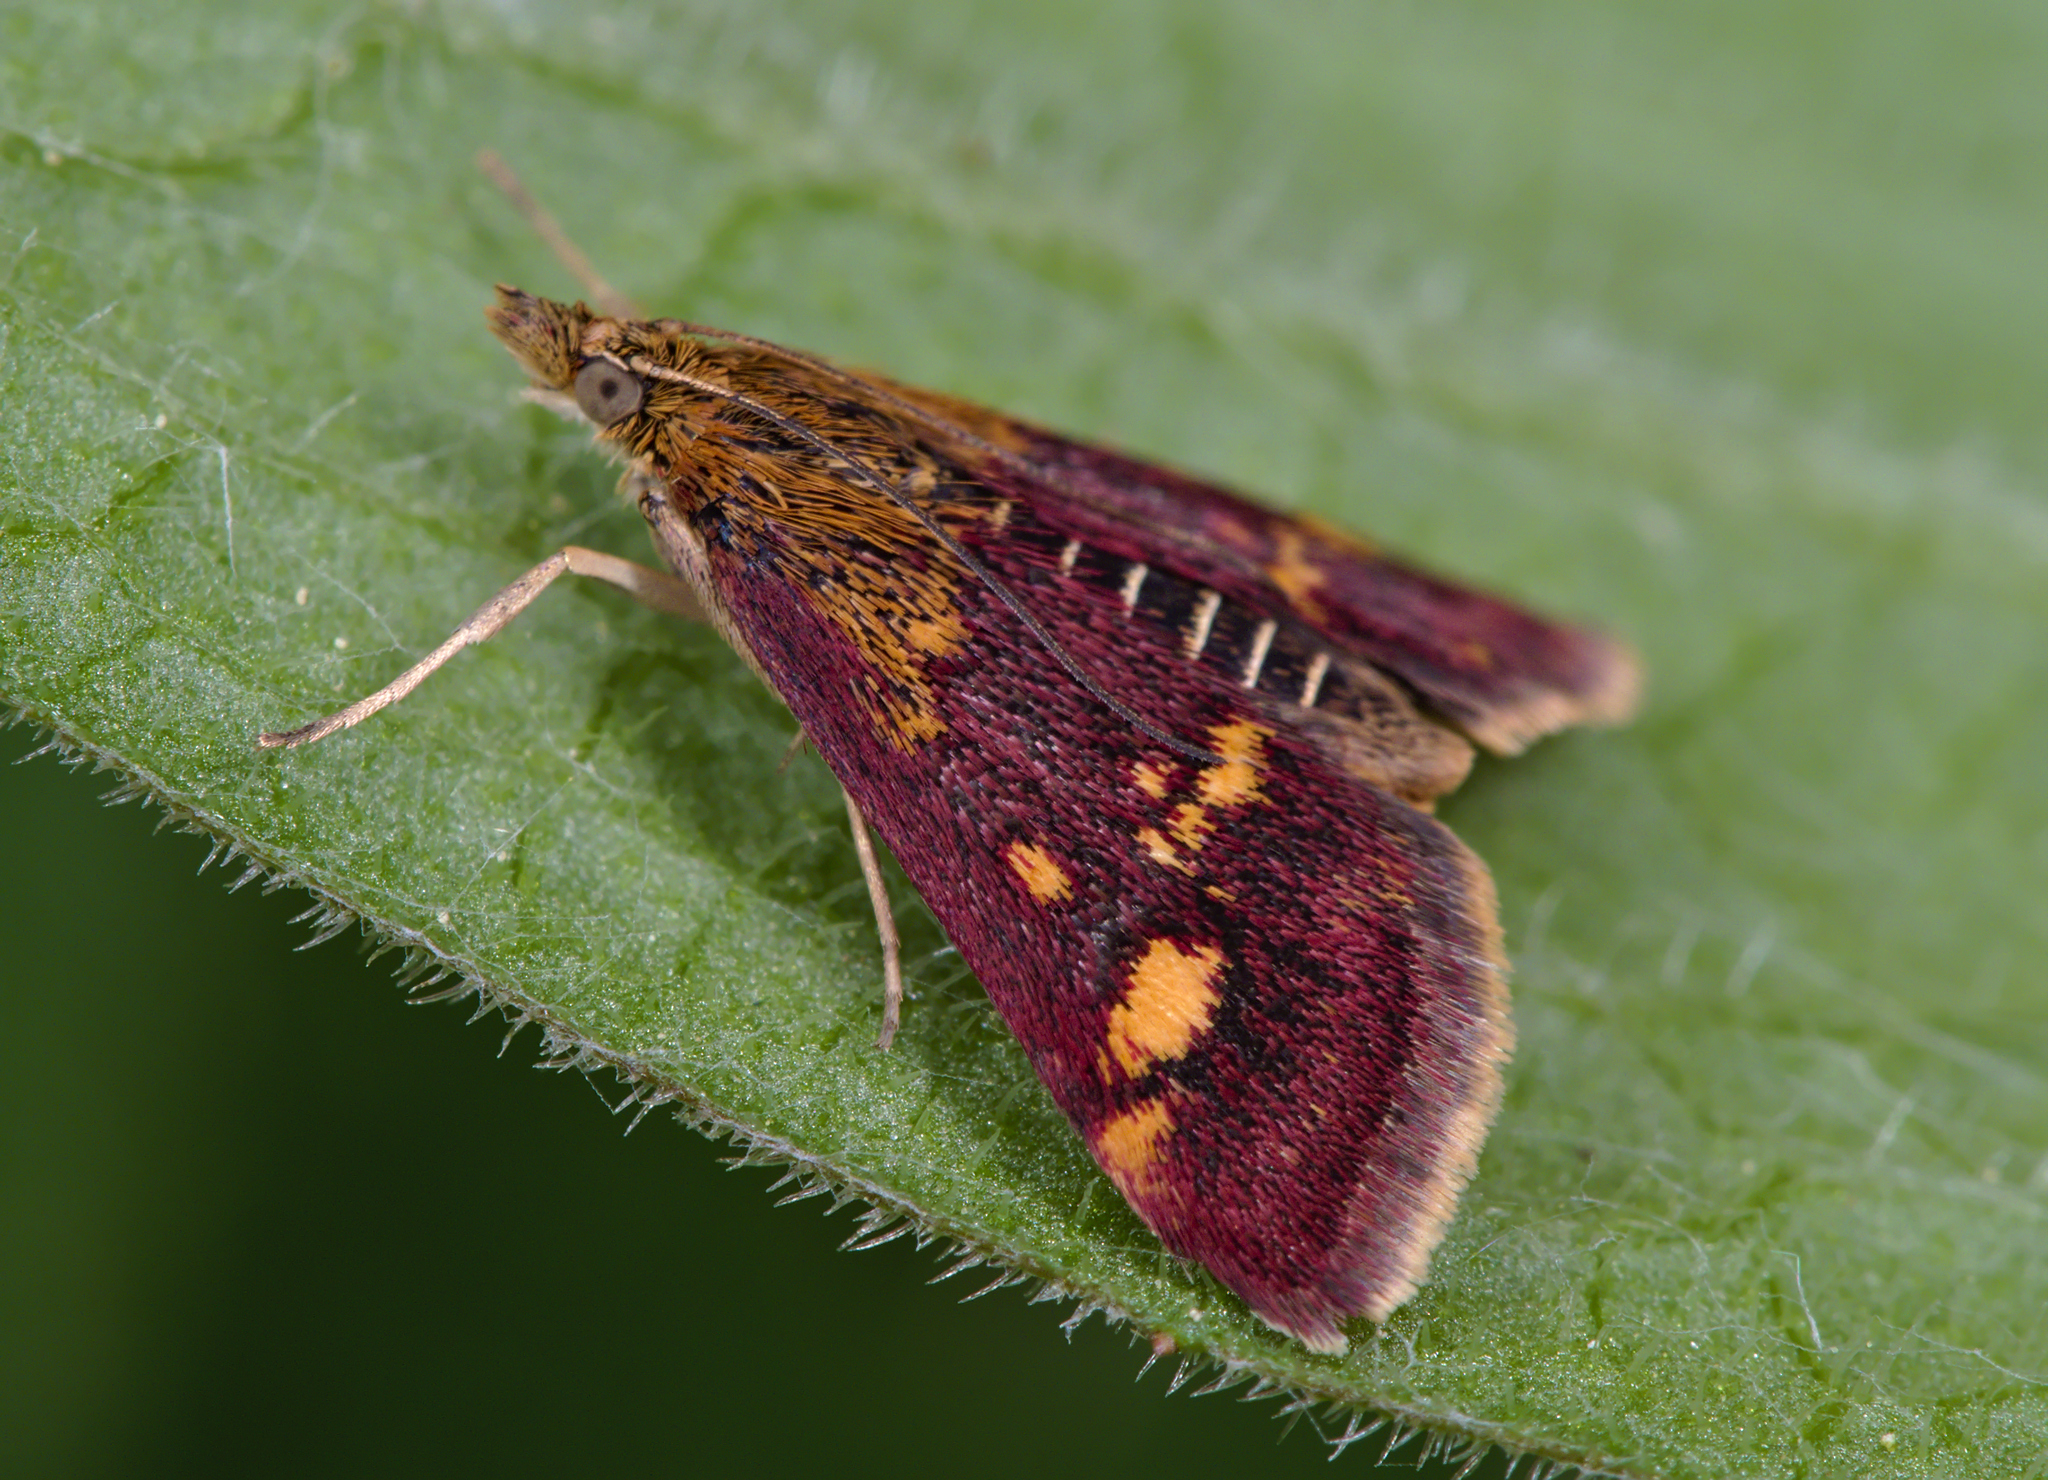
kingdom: Animalia
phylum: Arthropoda
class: Insecta
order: Lepidoptera
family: Crambidae
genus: Pyrausta
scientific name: Pyrausta aurata
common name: Small purple & gold
